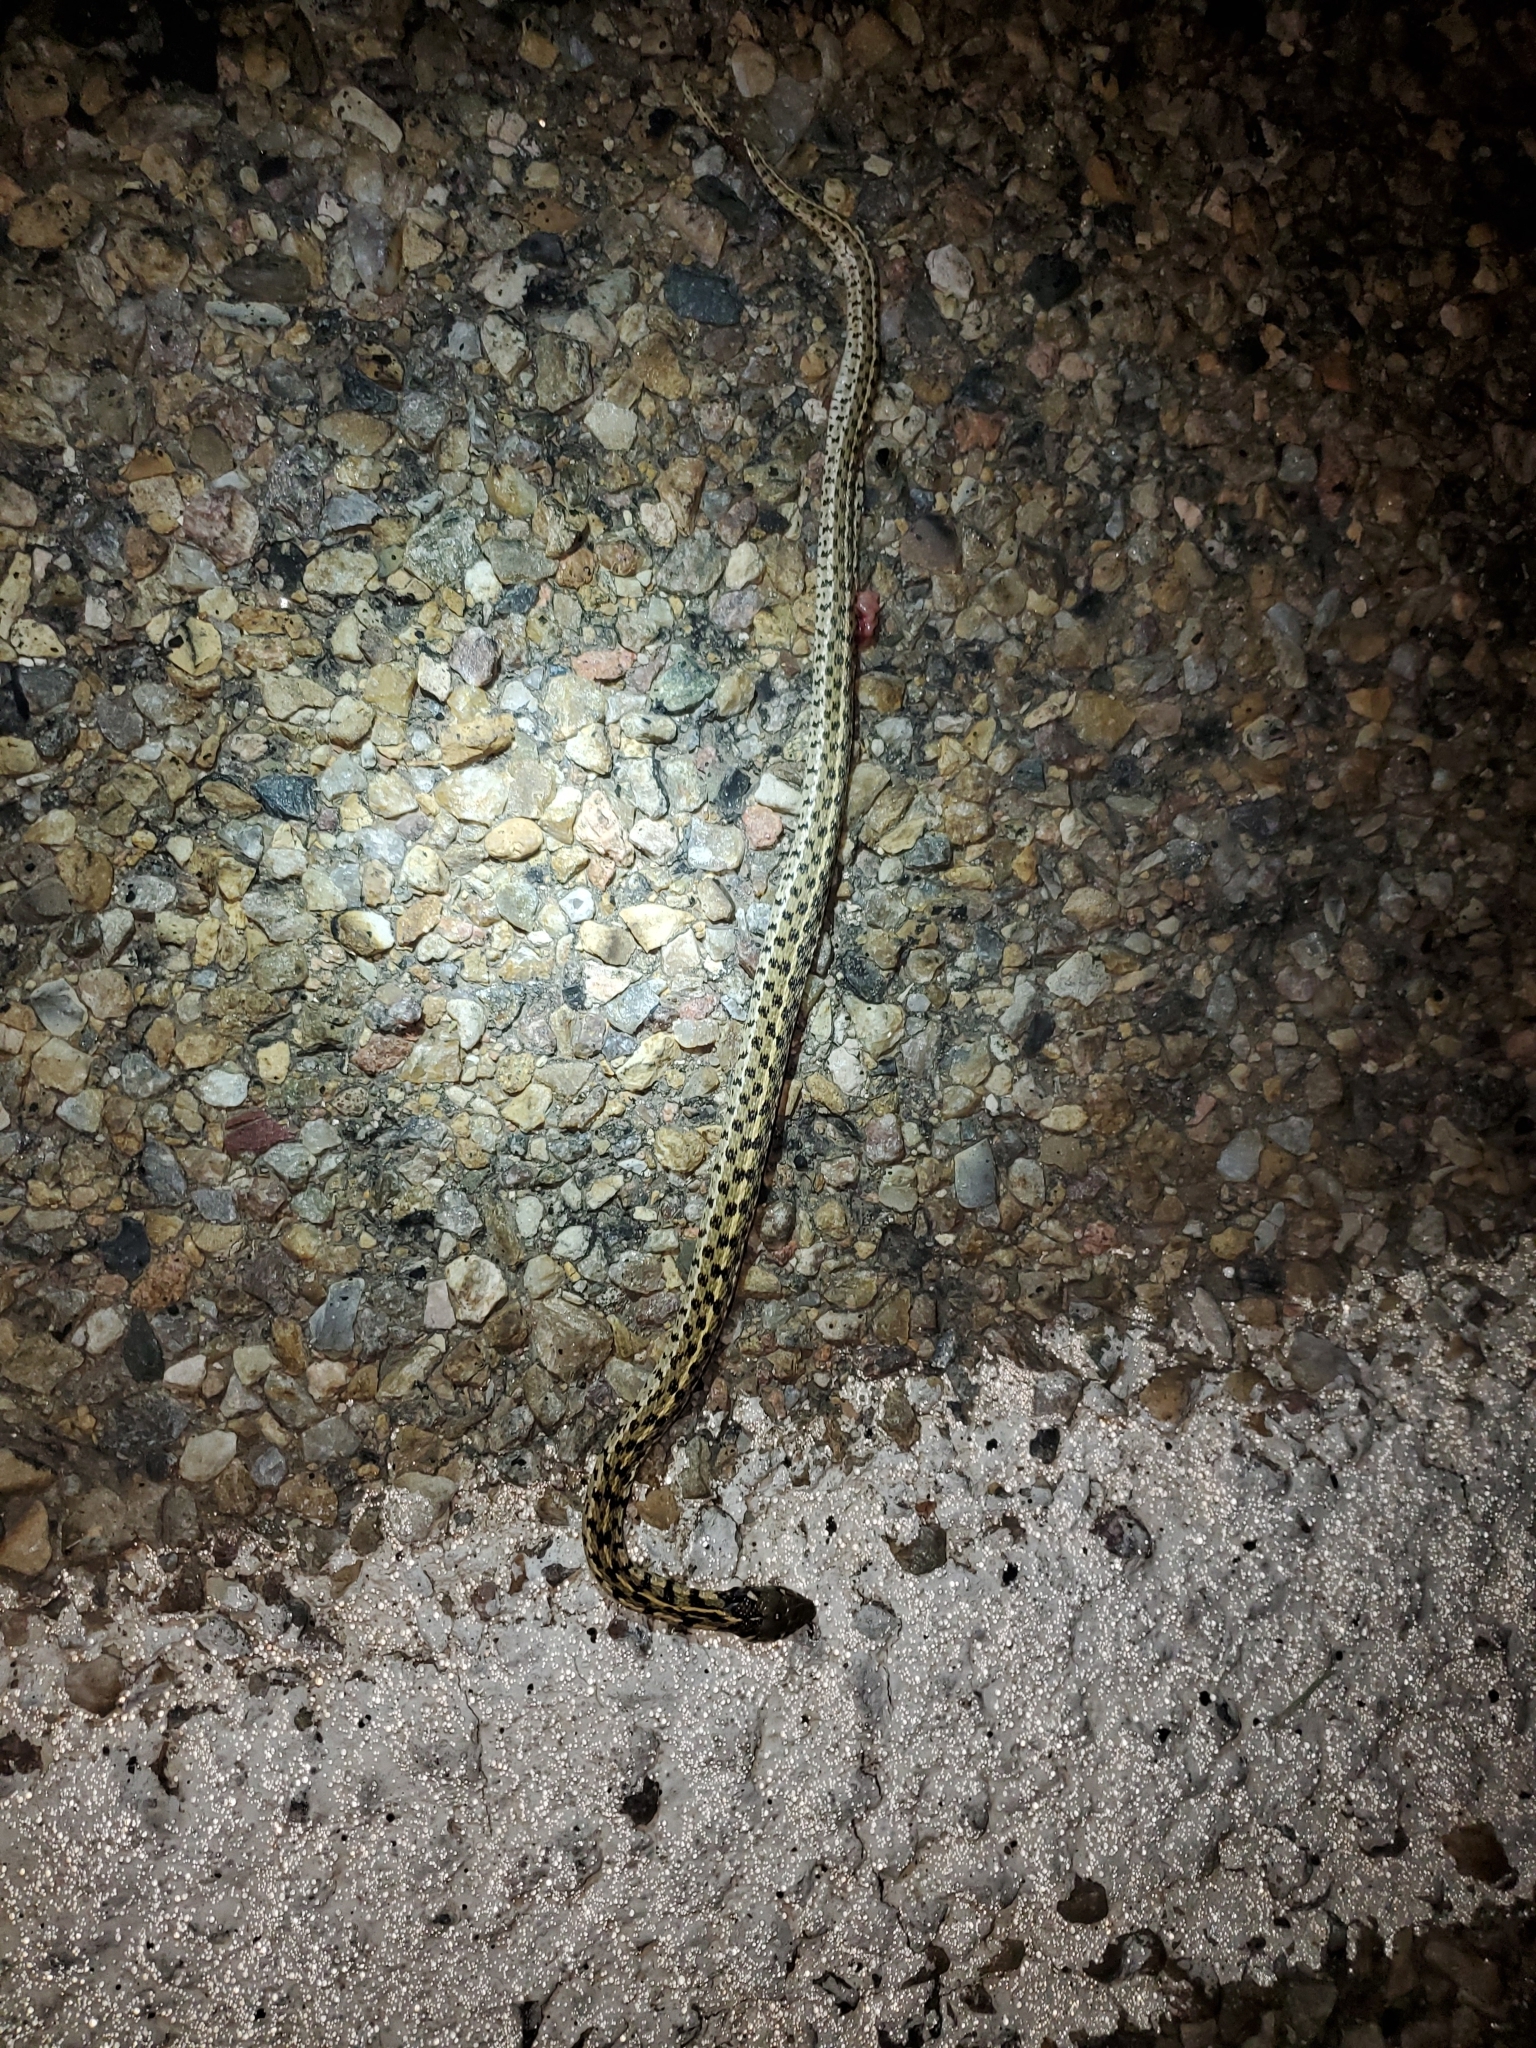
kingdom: Animalia
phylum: Chordata
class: Squamata
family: Colubridae
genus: Thamnophis
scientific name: Thamnophis marcianus
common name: Checkered garter snake
